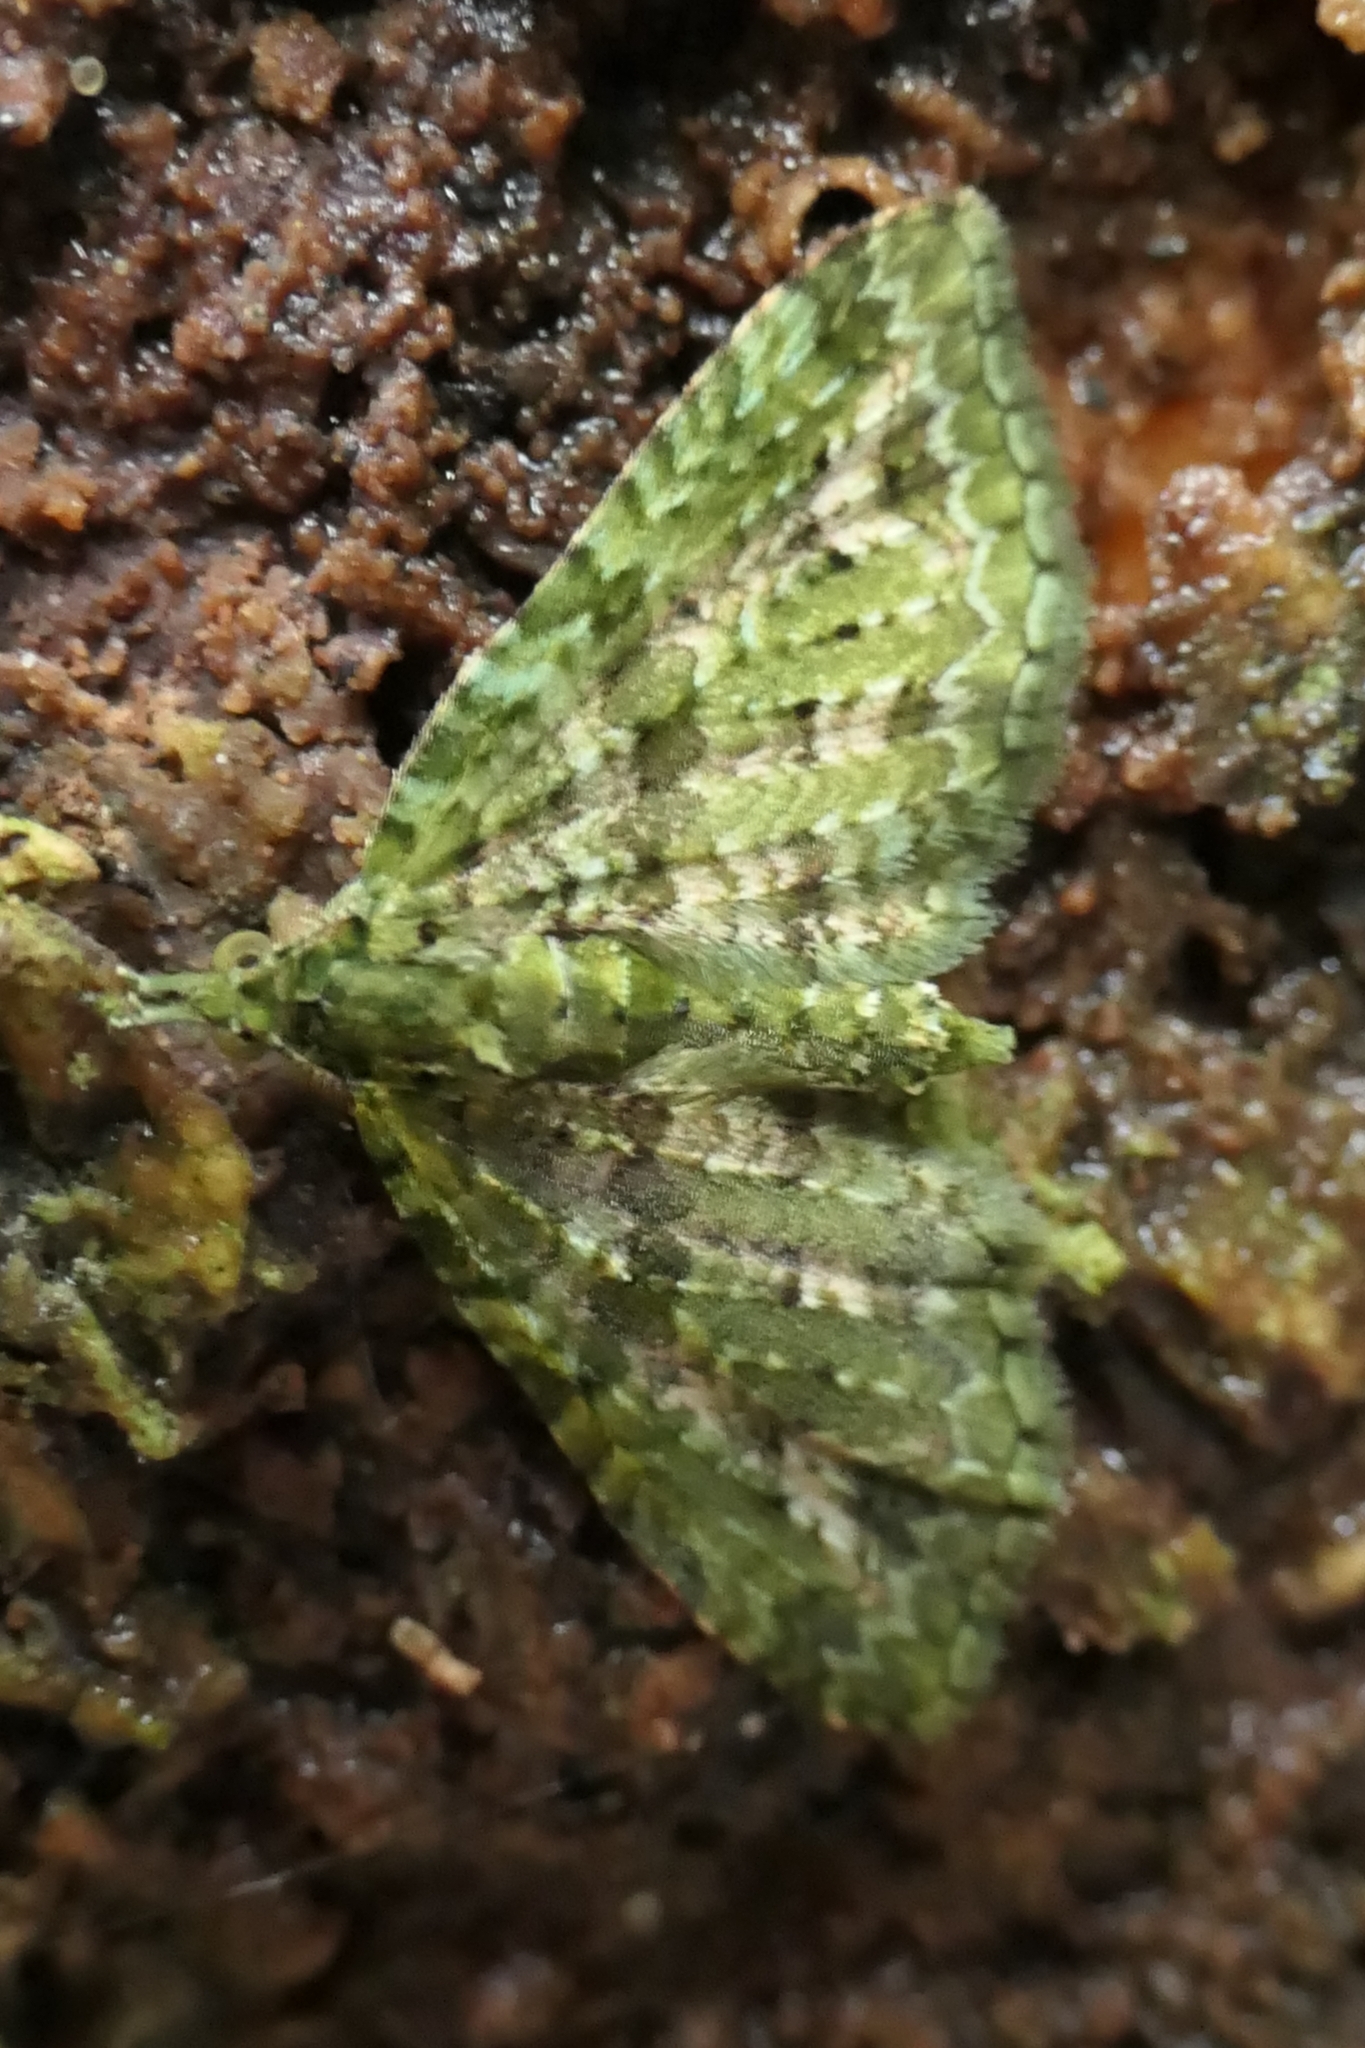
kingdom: Animalia
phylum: Arthropoda
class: Insecta
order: Lepidoptera
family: Geometridae
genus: Pasiphila
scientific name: Pasiphila muscosata
